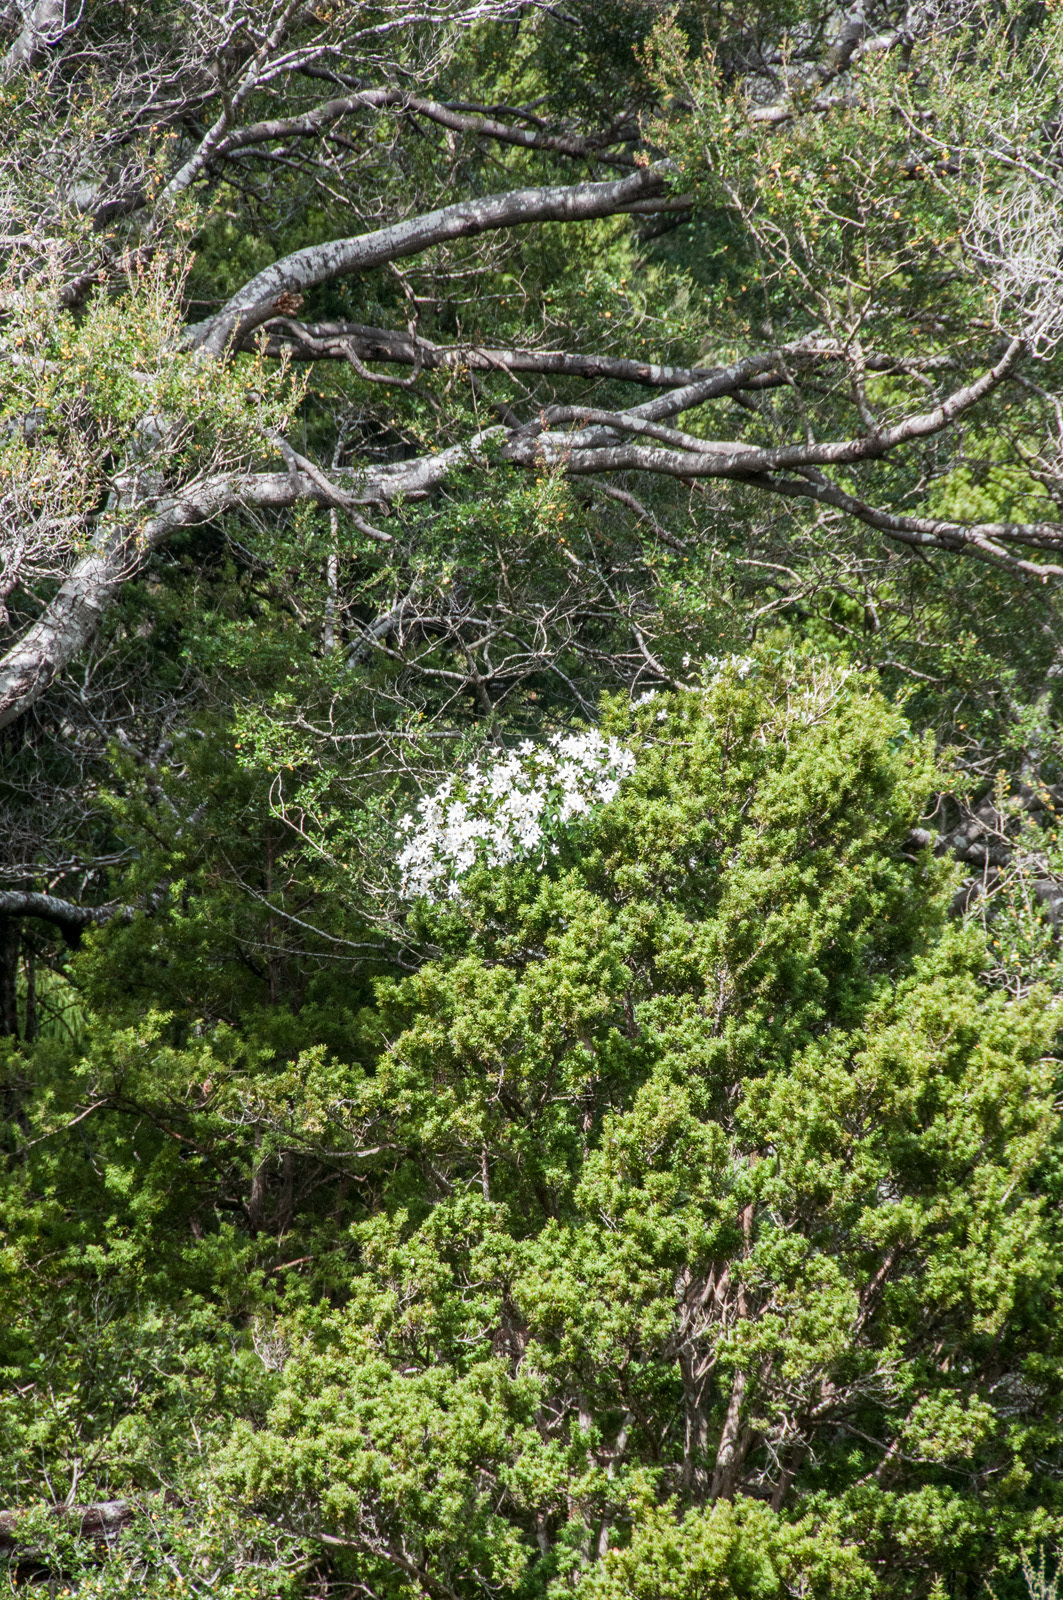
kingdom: Plantae
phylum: Tracheophyta
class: Magnoliopsida
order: Ranunculales
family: Ranunculaceae
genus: Clematis
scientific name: Clematis paniculata
